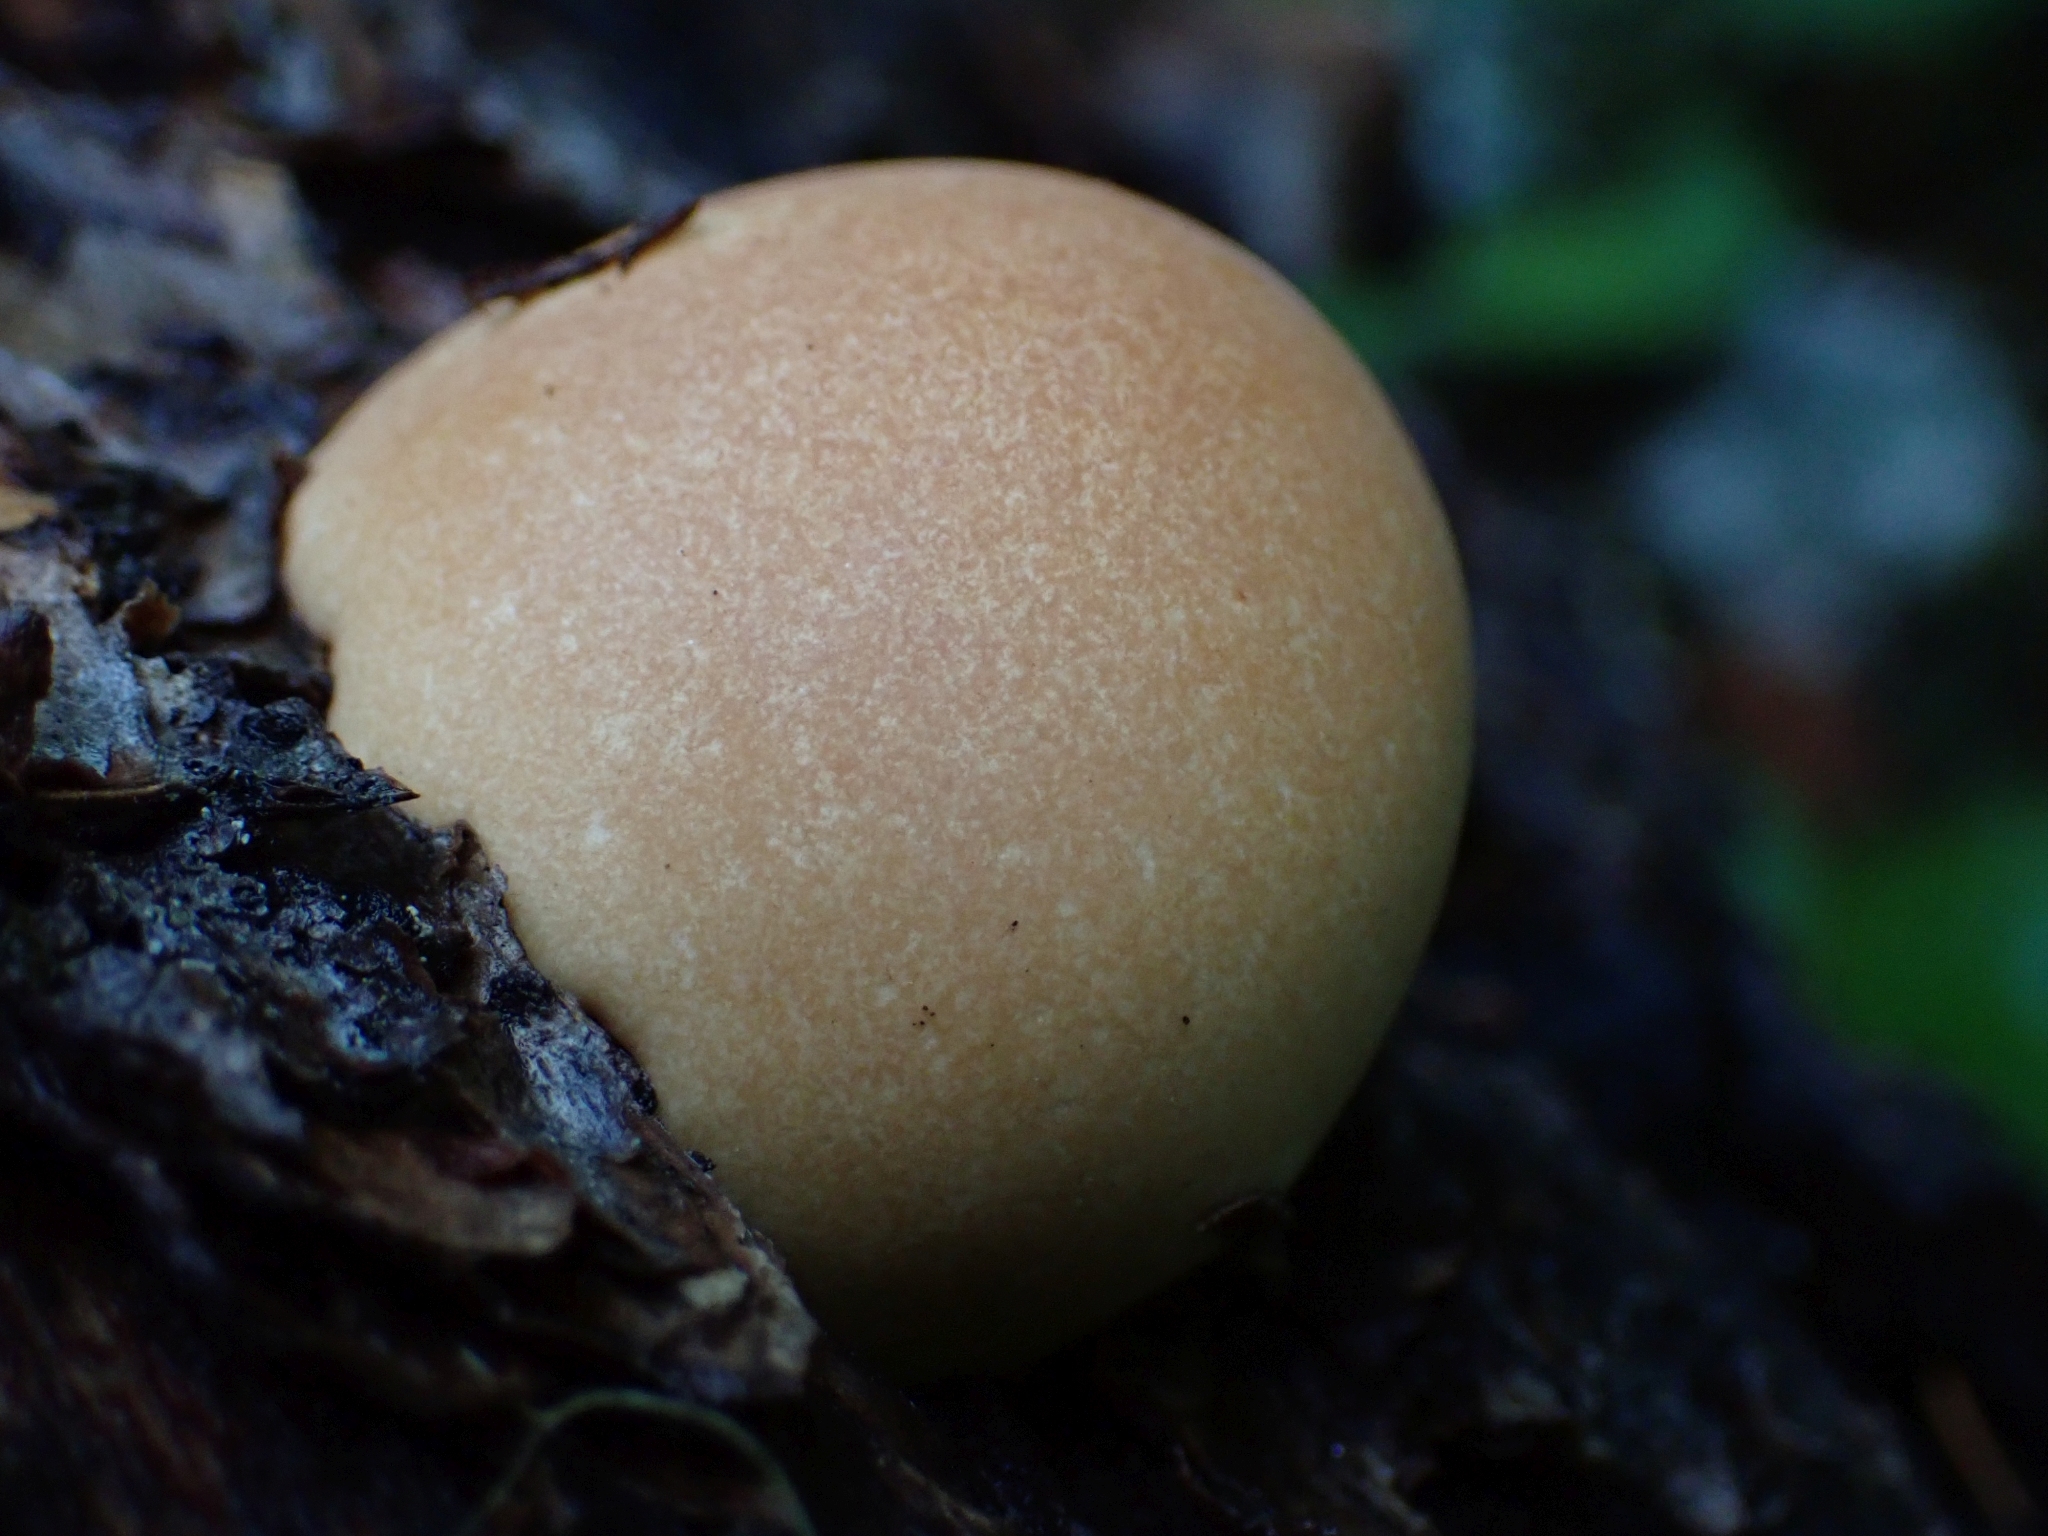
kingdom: Fungi
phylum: Basidiomycota
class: Agaricomycetes
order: Polyporales
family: Polyporaceae
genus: Cryptoporus
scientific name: Cryptoporus volvatus
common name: Veiled polypore
